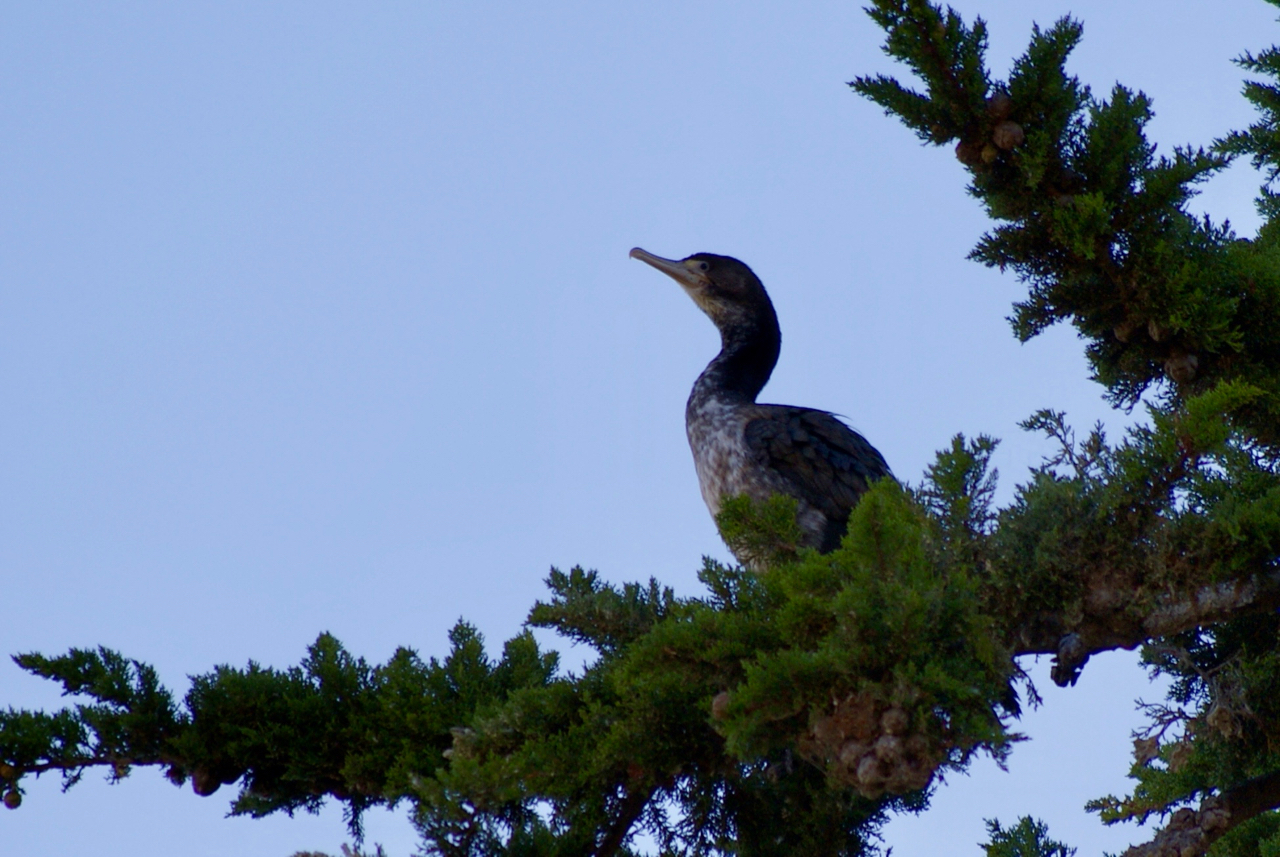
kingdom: Animalia
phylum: Chordata
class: Aves
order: Suliformes
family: Phalacrocoracidae
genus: Phalacrocorax
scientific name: Phalacrocorax varius
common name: Pied cormorant
